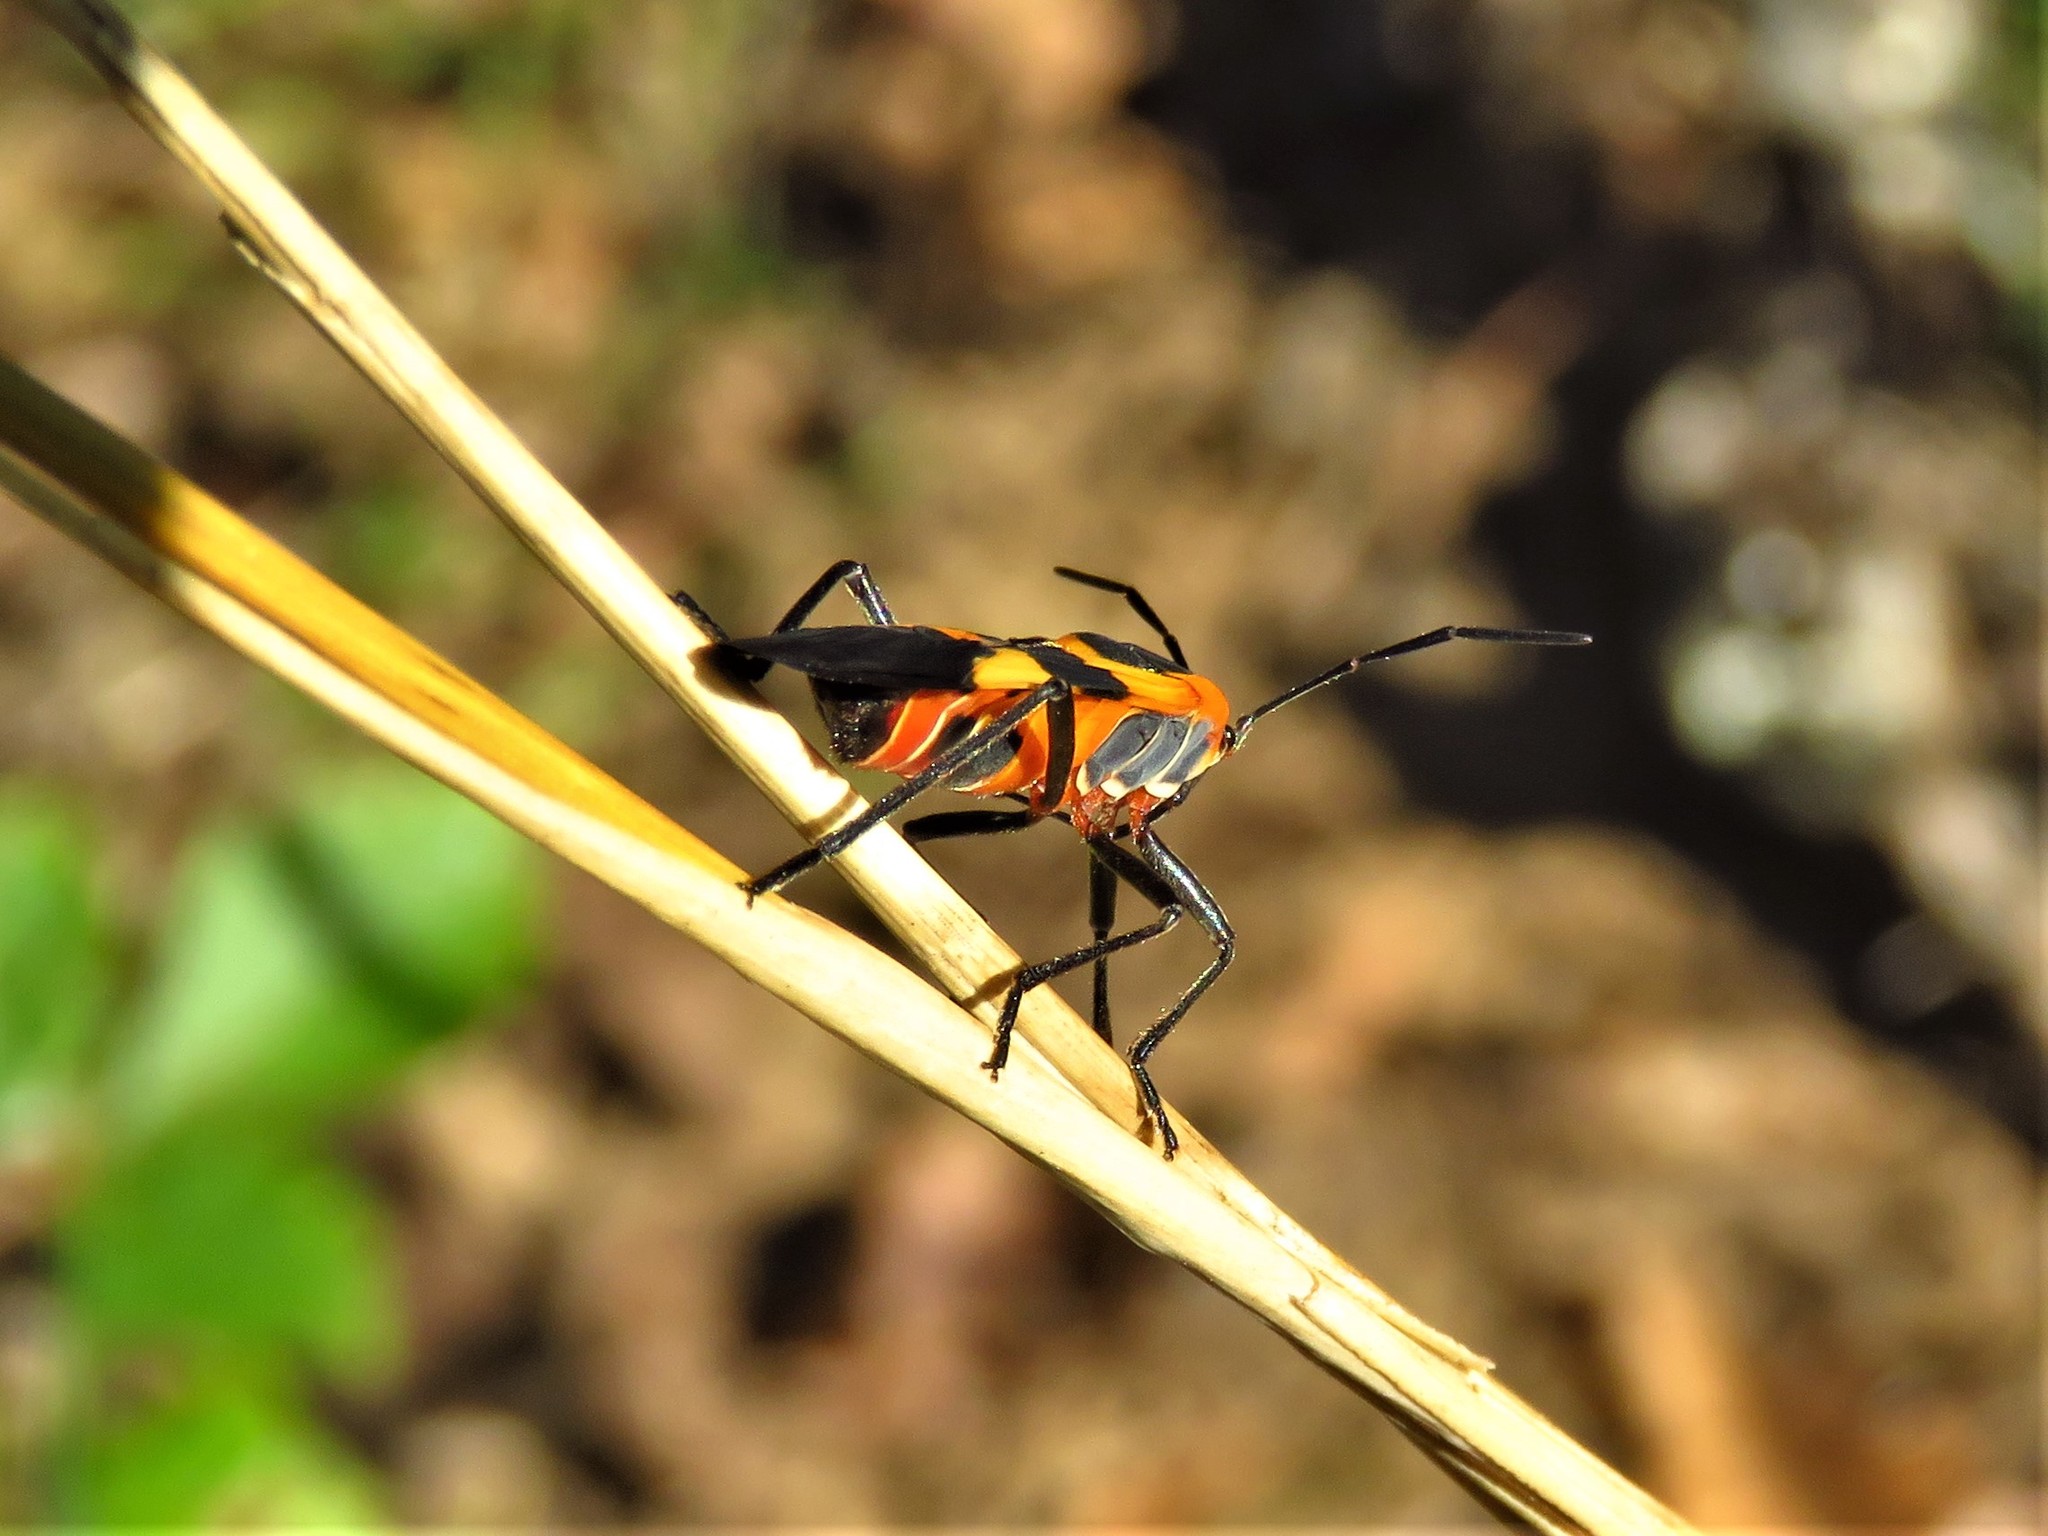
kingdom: Animalia
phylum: Arthropoda
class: Insecta
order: Hemiptera
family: Lygaeidae
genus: Oncopeltus
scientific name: Oncopeltus fasciatus
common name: Large milkweed bug
